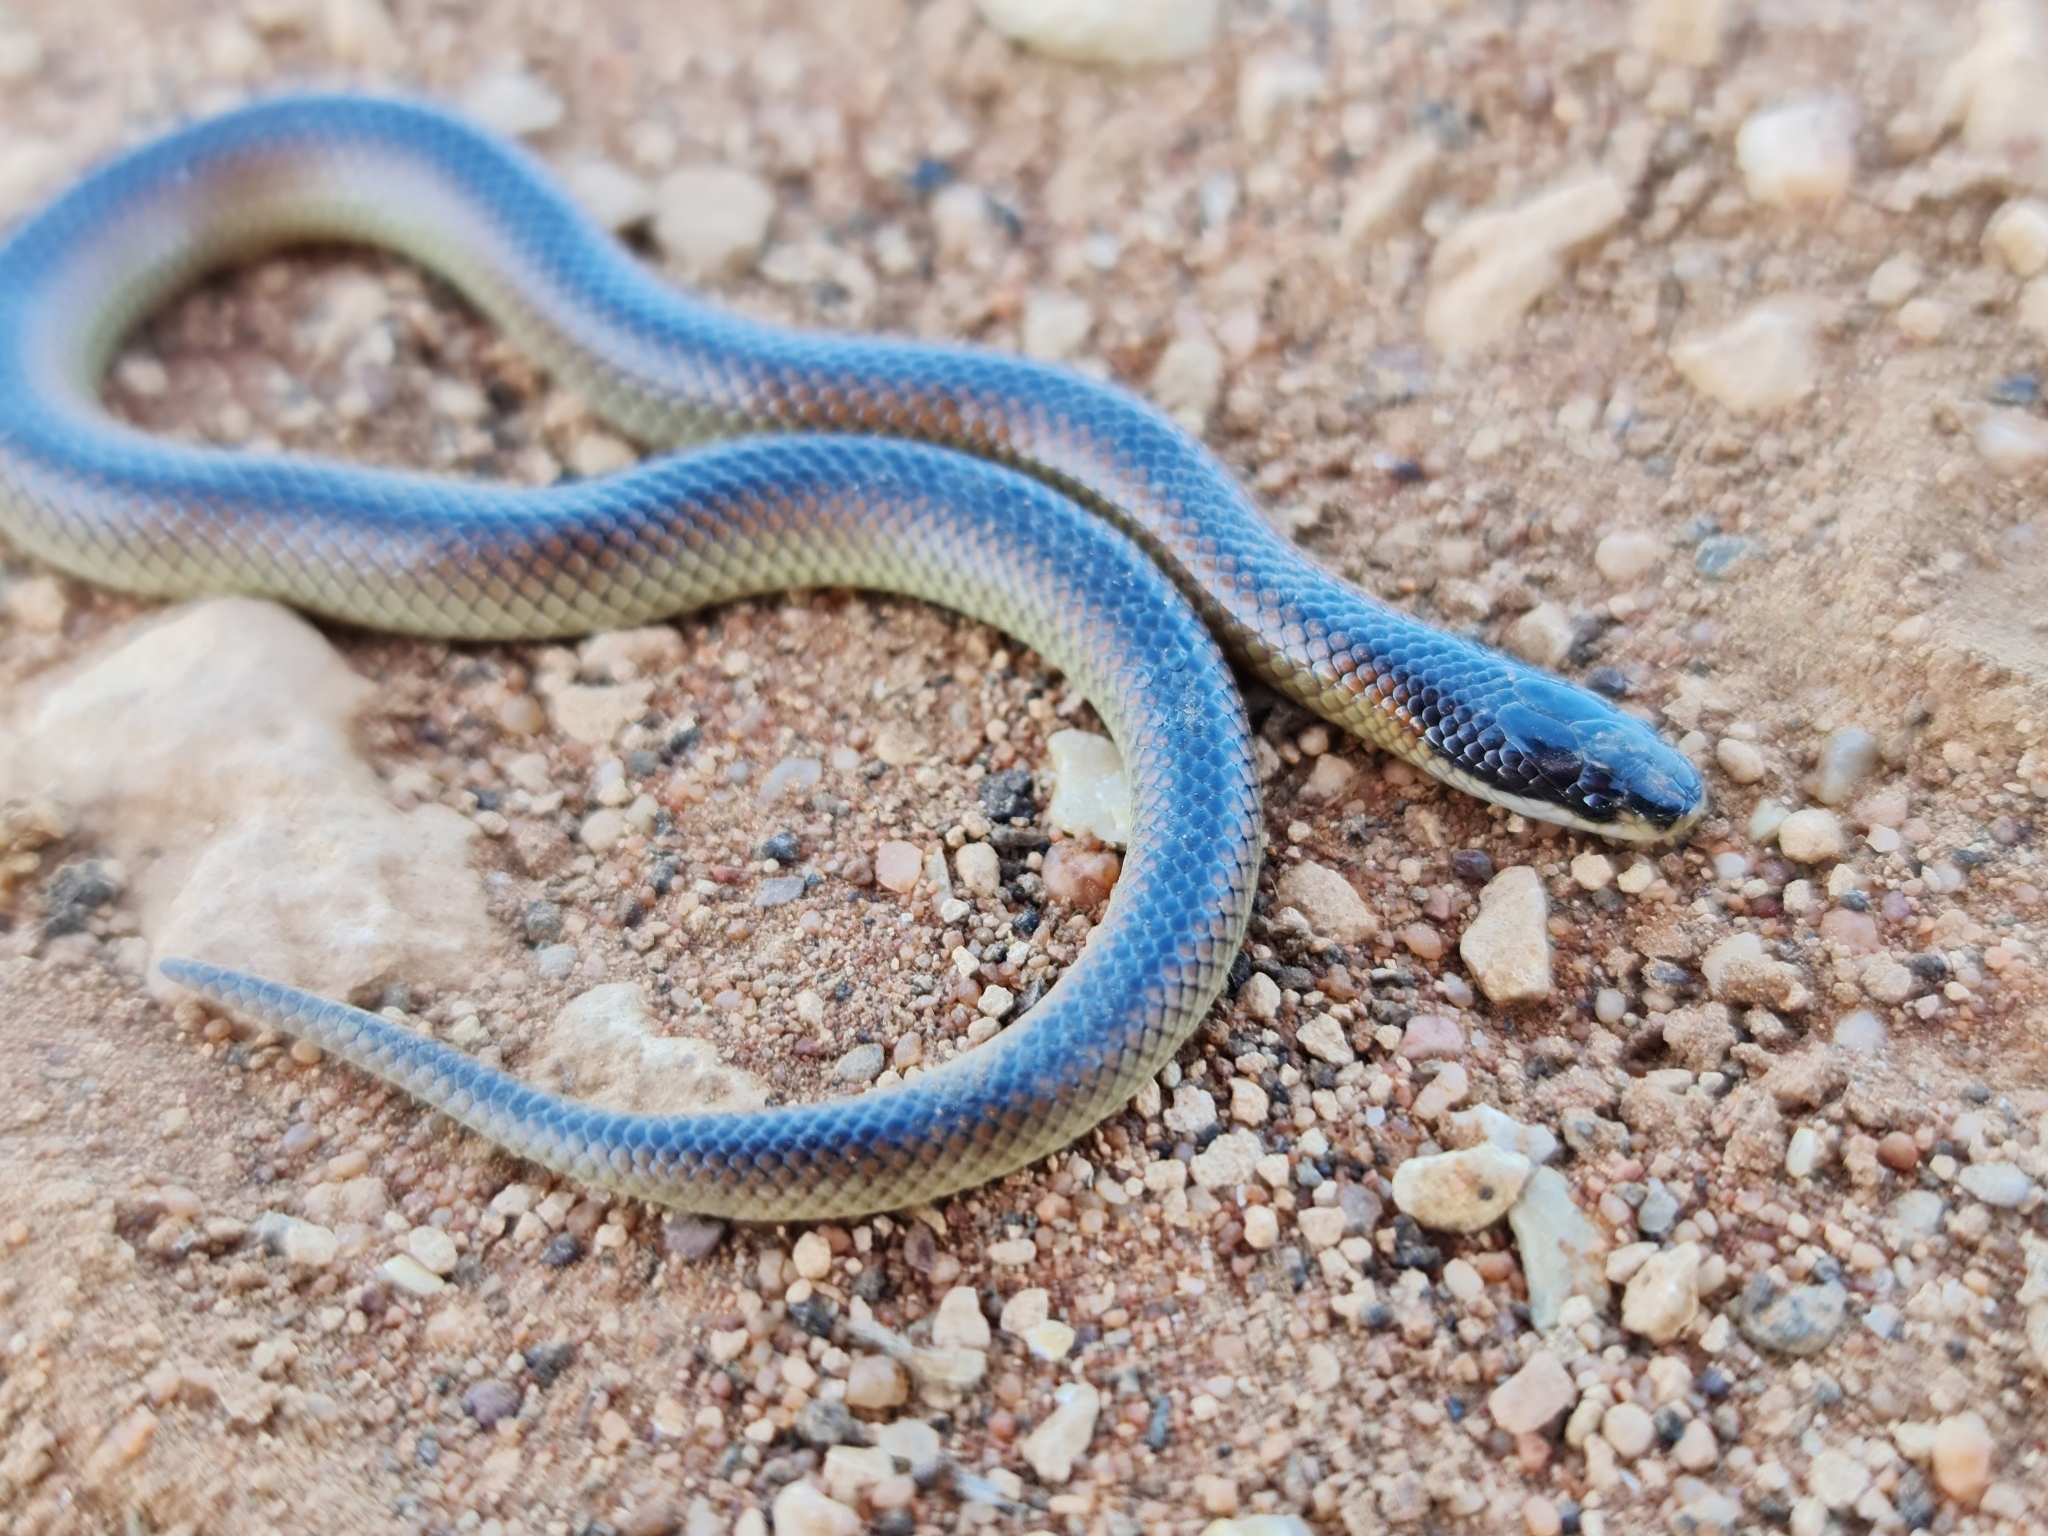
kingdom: Animalia
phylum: Chordata
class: Squamata
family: Elapidae
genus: Suta
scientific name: Suta nigriceps
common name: Mallee black-backed snake
